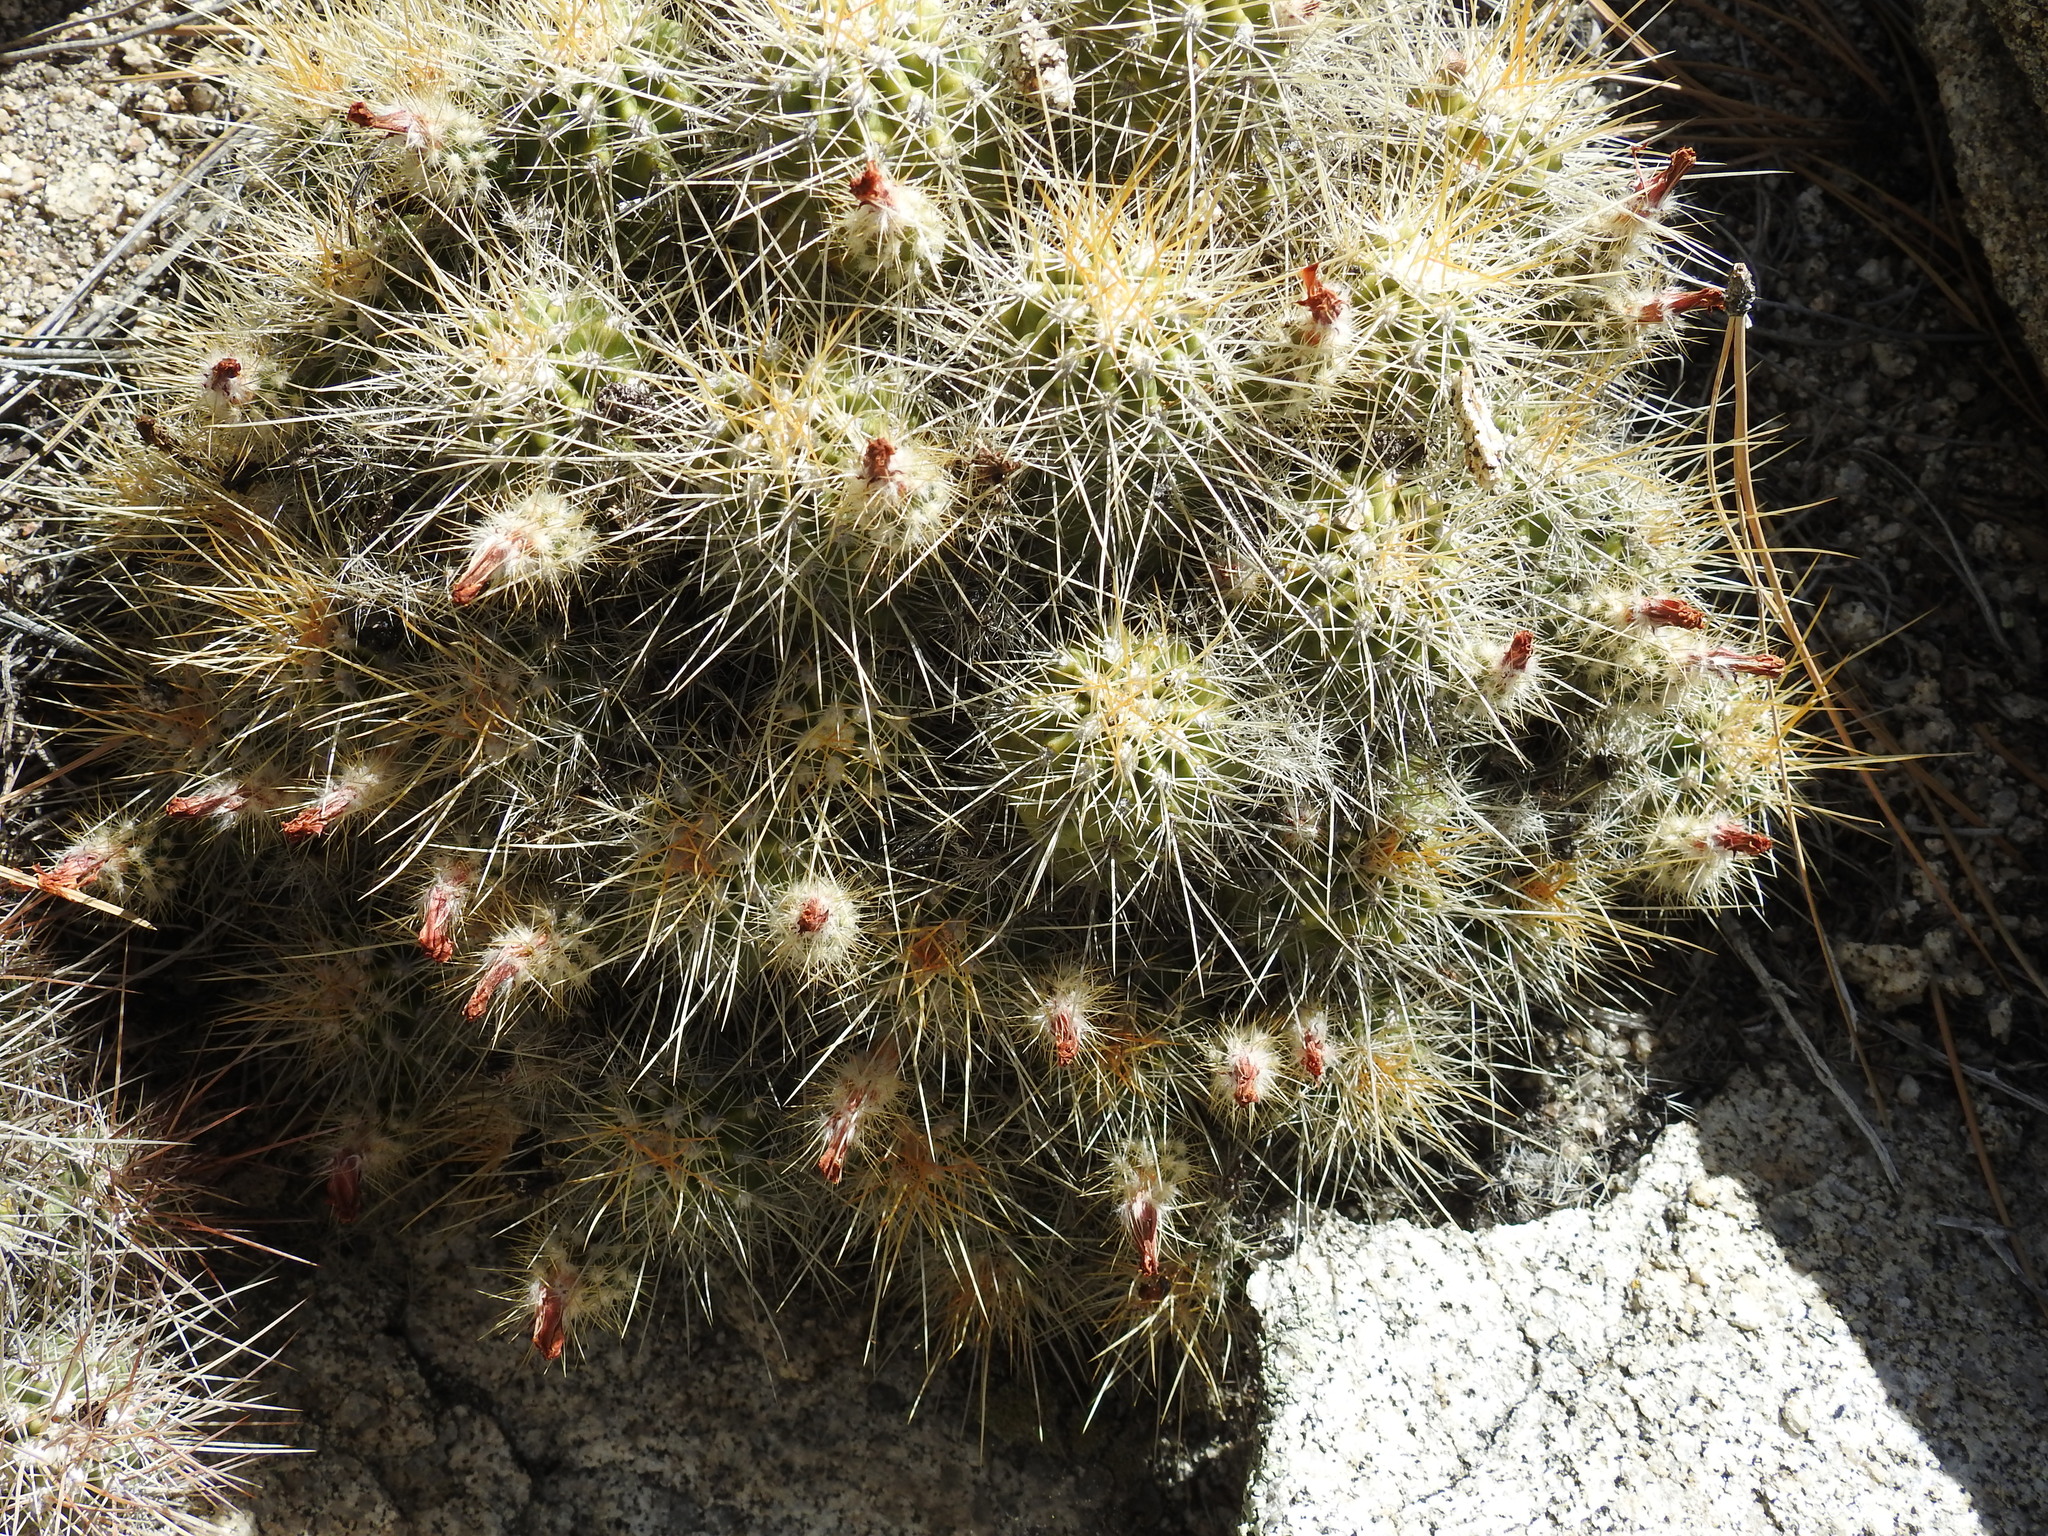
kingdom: Plantae
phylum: Tracheophyta
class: Magnoliopsida
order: Caryophyllales
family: Cactaceae
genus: Echinocereus
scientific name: Echinocereus pacificus
